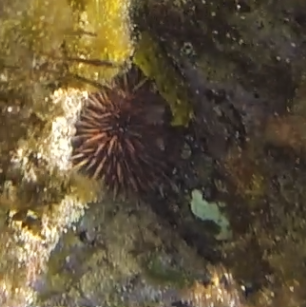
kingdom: Animalia
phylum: Echinodermata
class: Echinoidea
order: Camarodonta
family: Echinometridae
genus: Heliocidaris
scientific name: Heliocidaris erythrogramma
